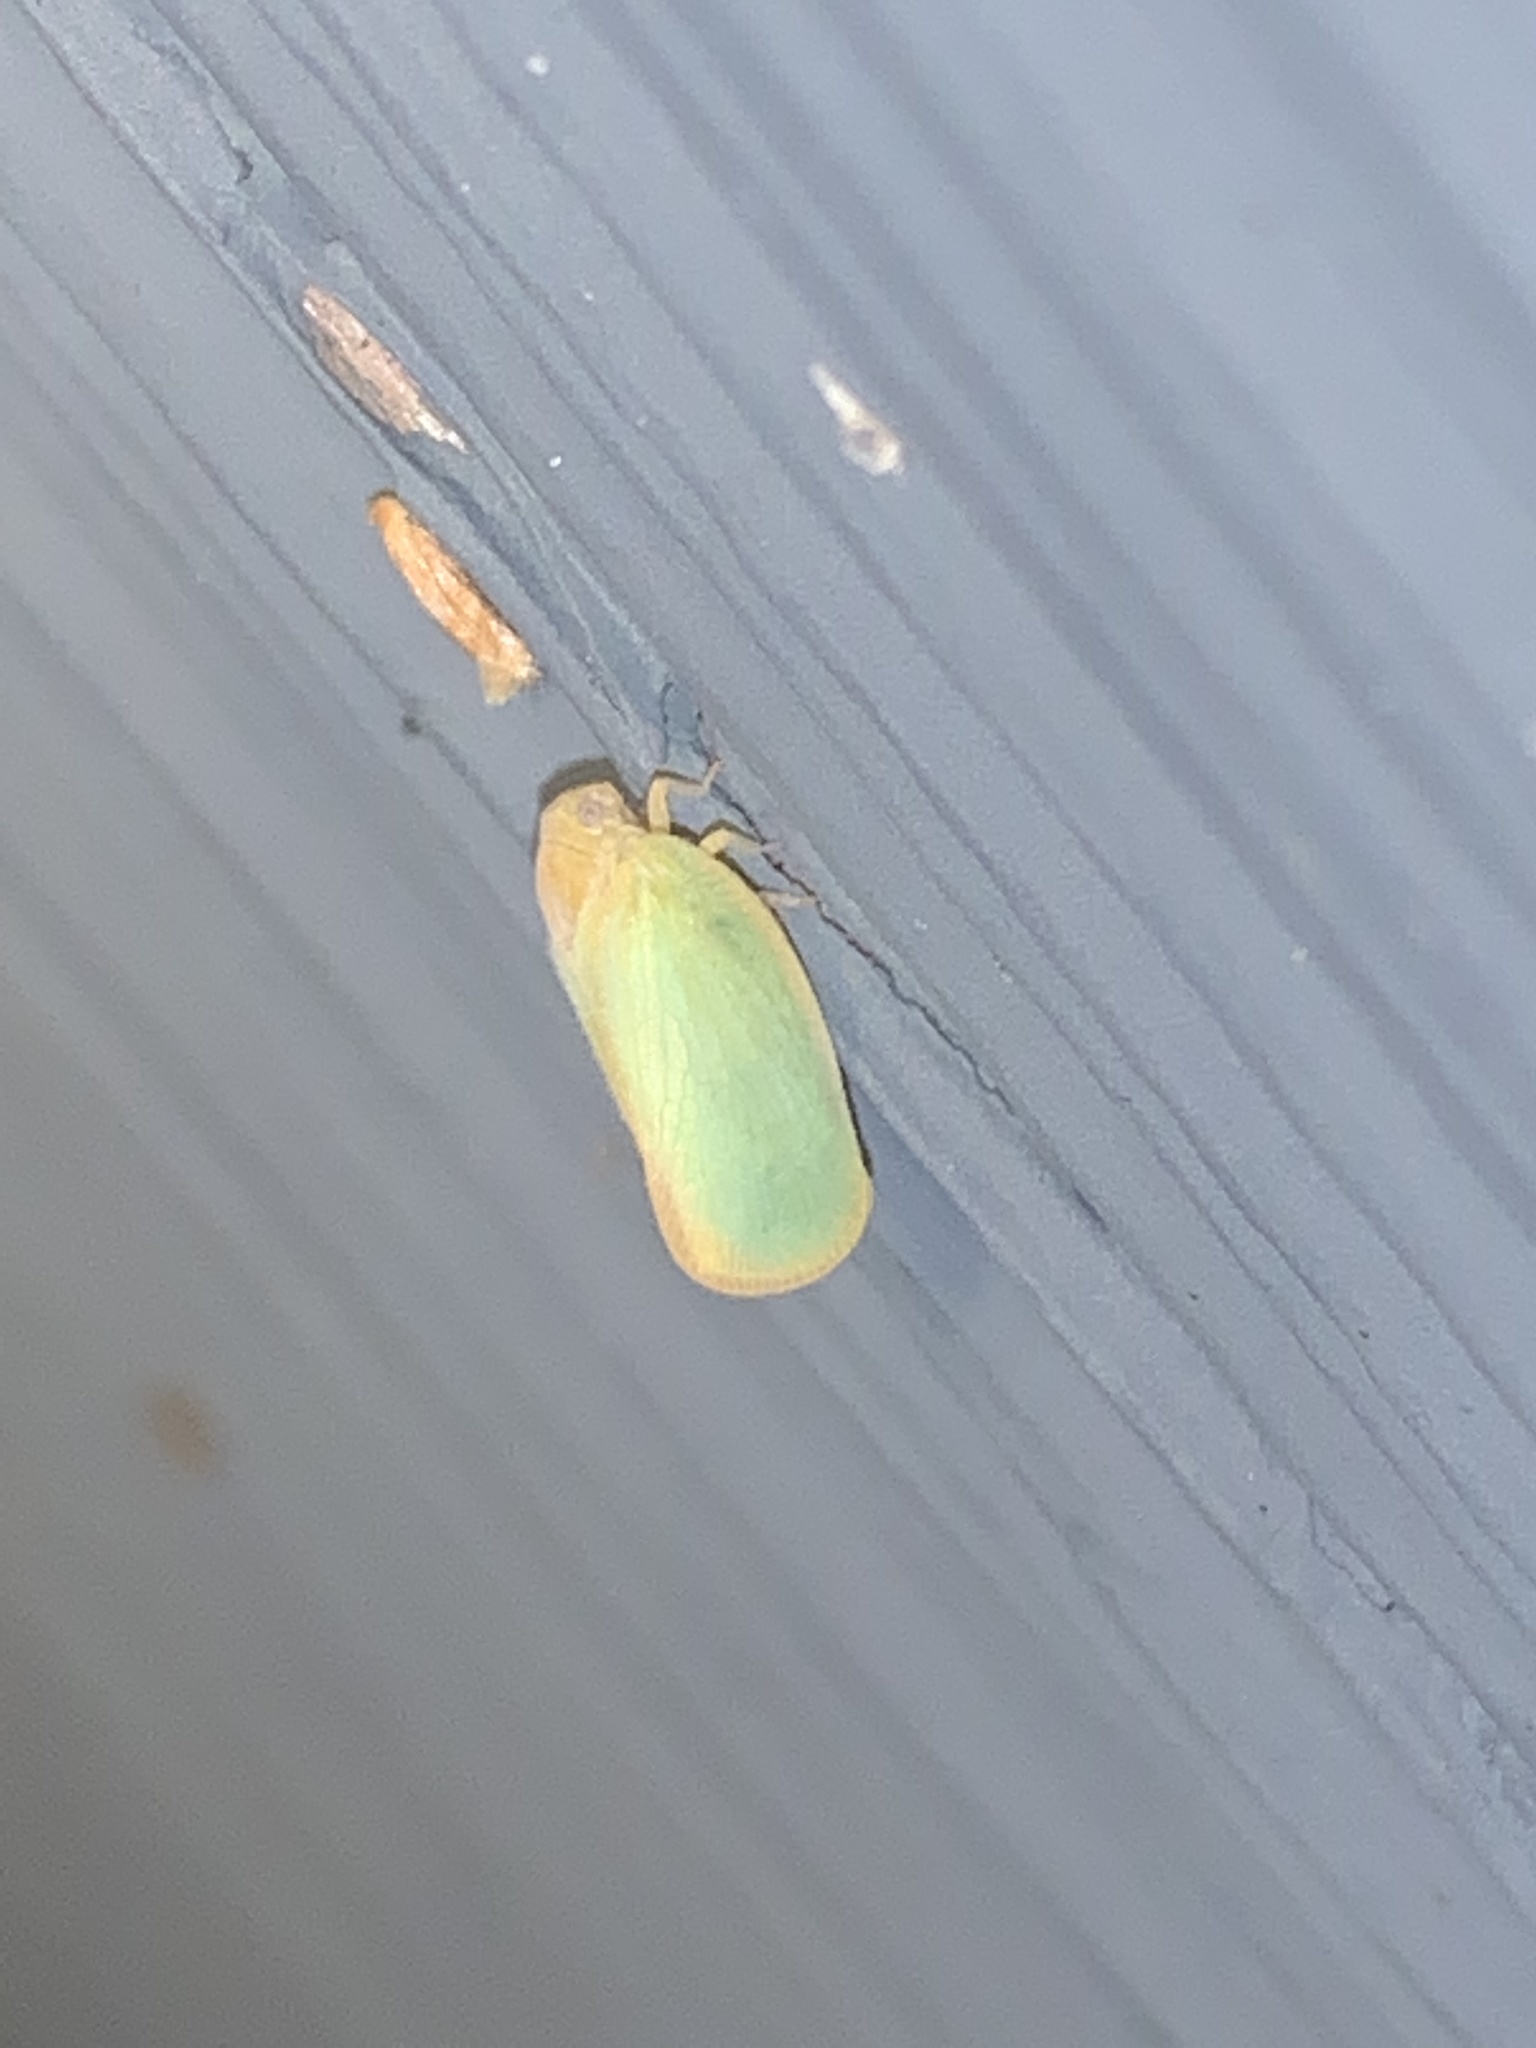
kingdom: Animalia
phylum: Arthropoda
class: Insecta
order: Hemiptera
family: Flatidae
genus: Ormenoides
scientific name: Ormenoides venusta
